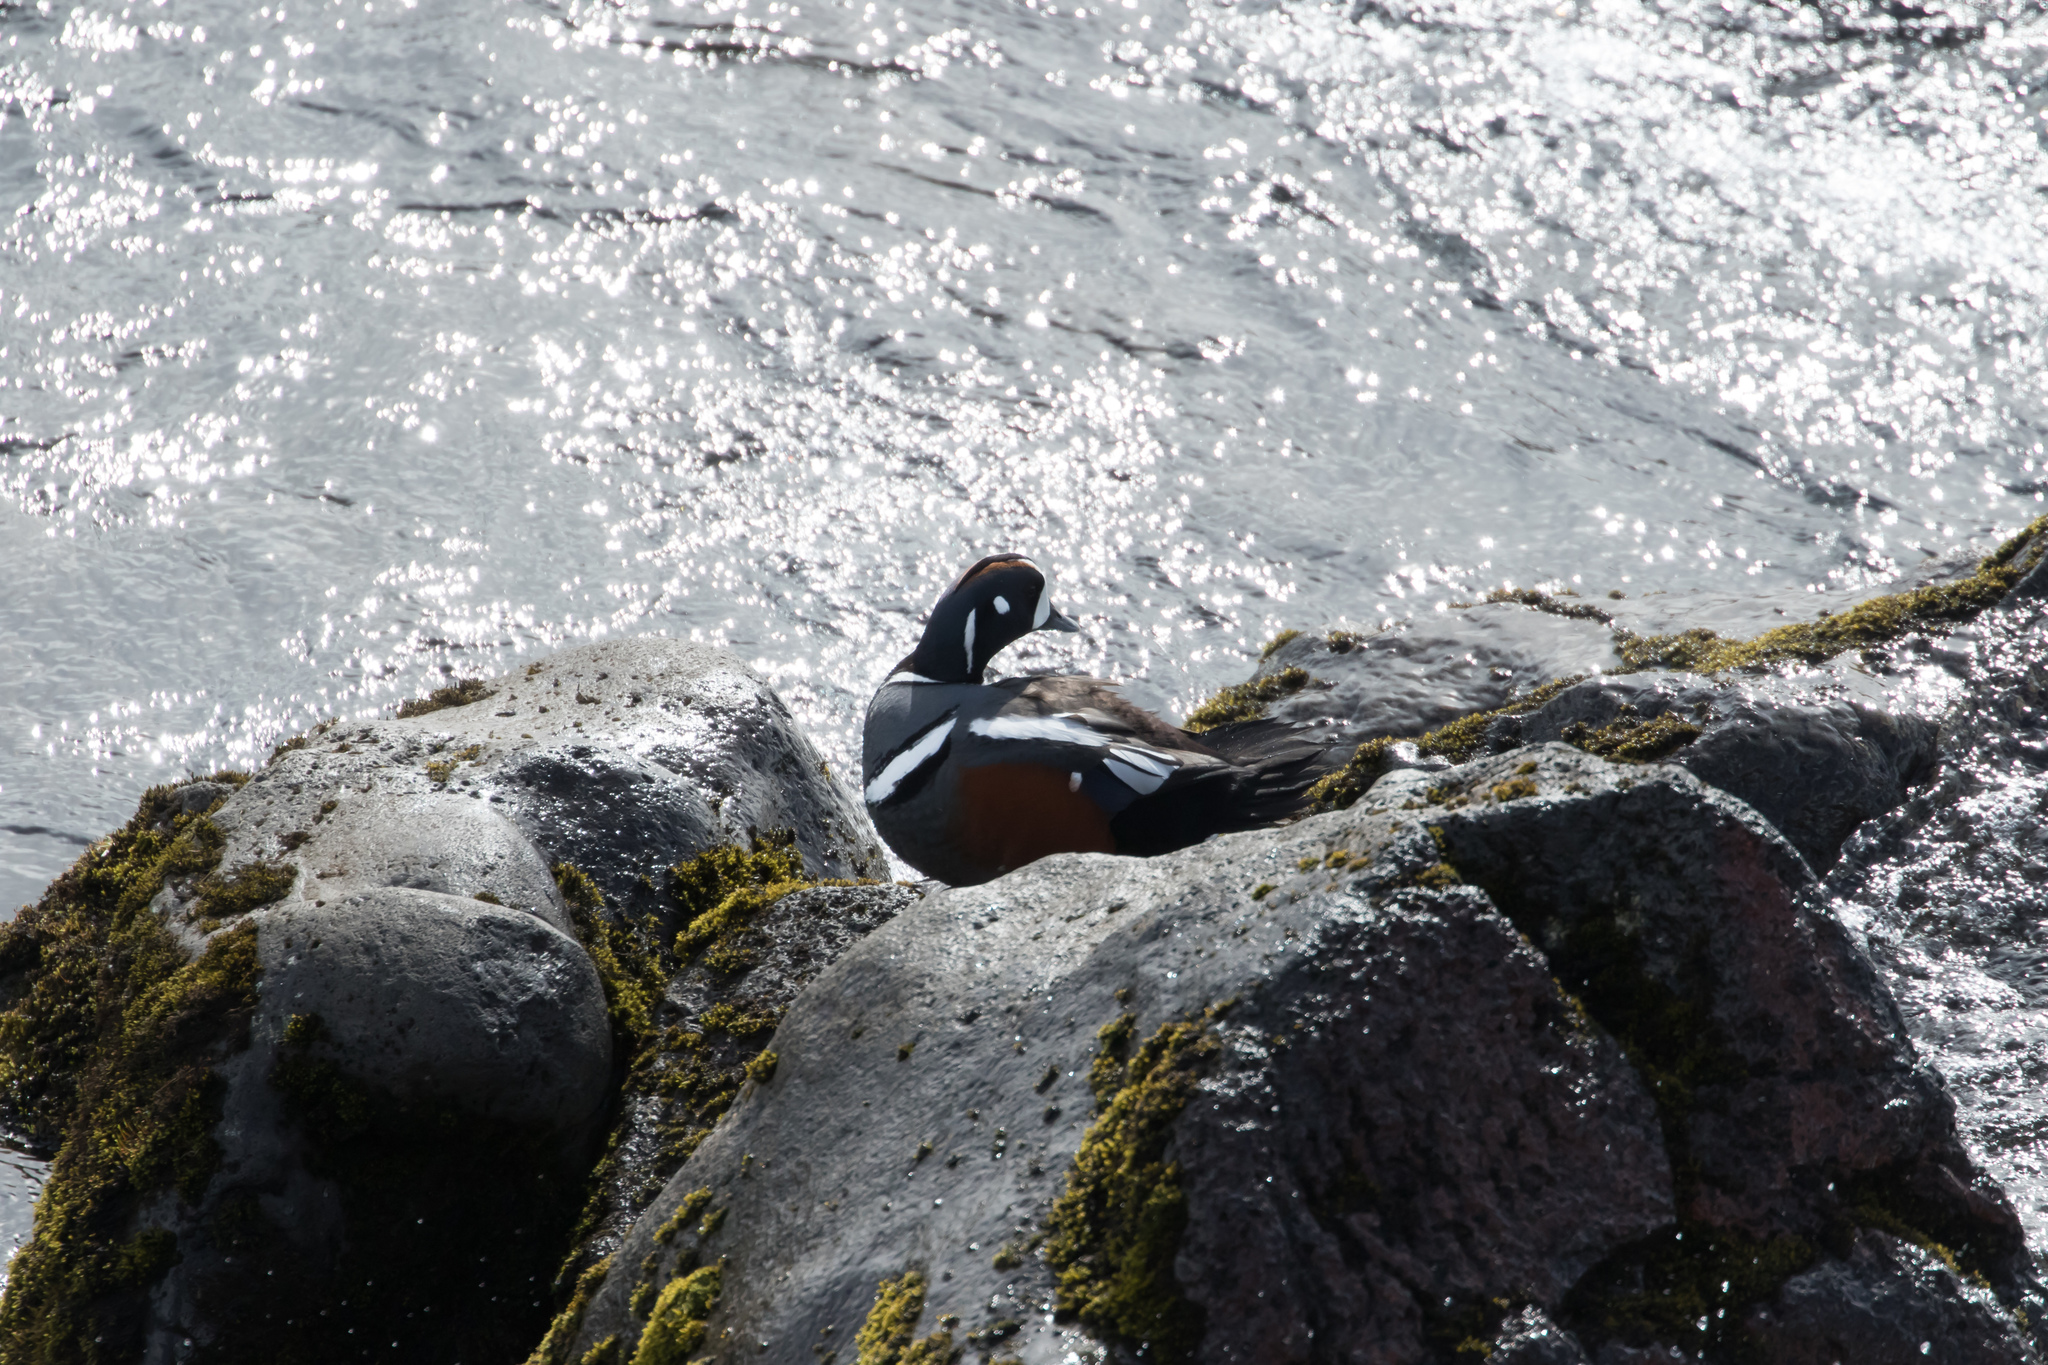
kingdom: Animalia
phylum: Chordata
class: Aves
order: Anseriformes
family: Anatidae
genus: Histrionicus
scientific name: Histrionicus histrionicus
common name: Harlequin duck
